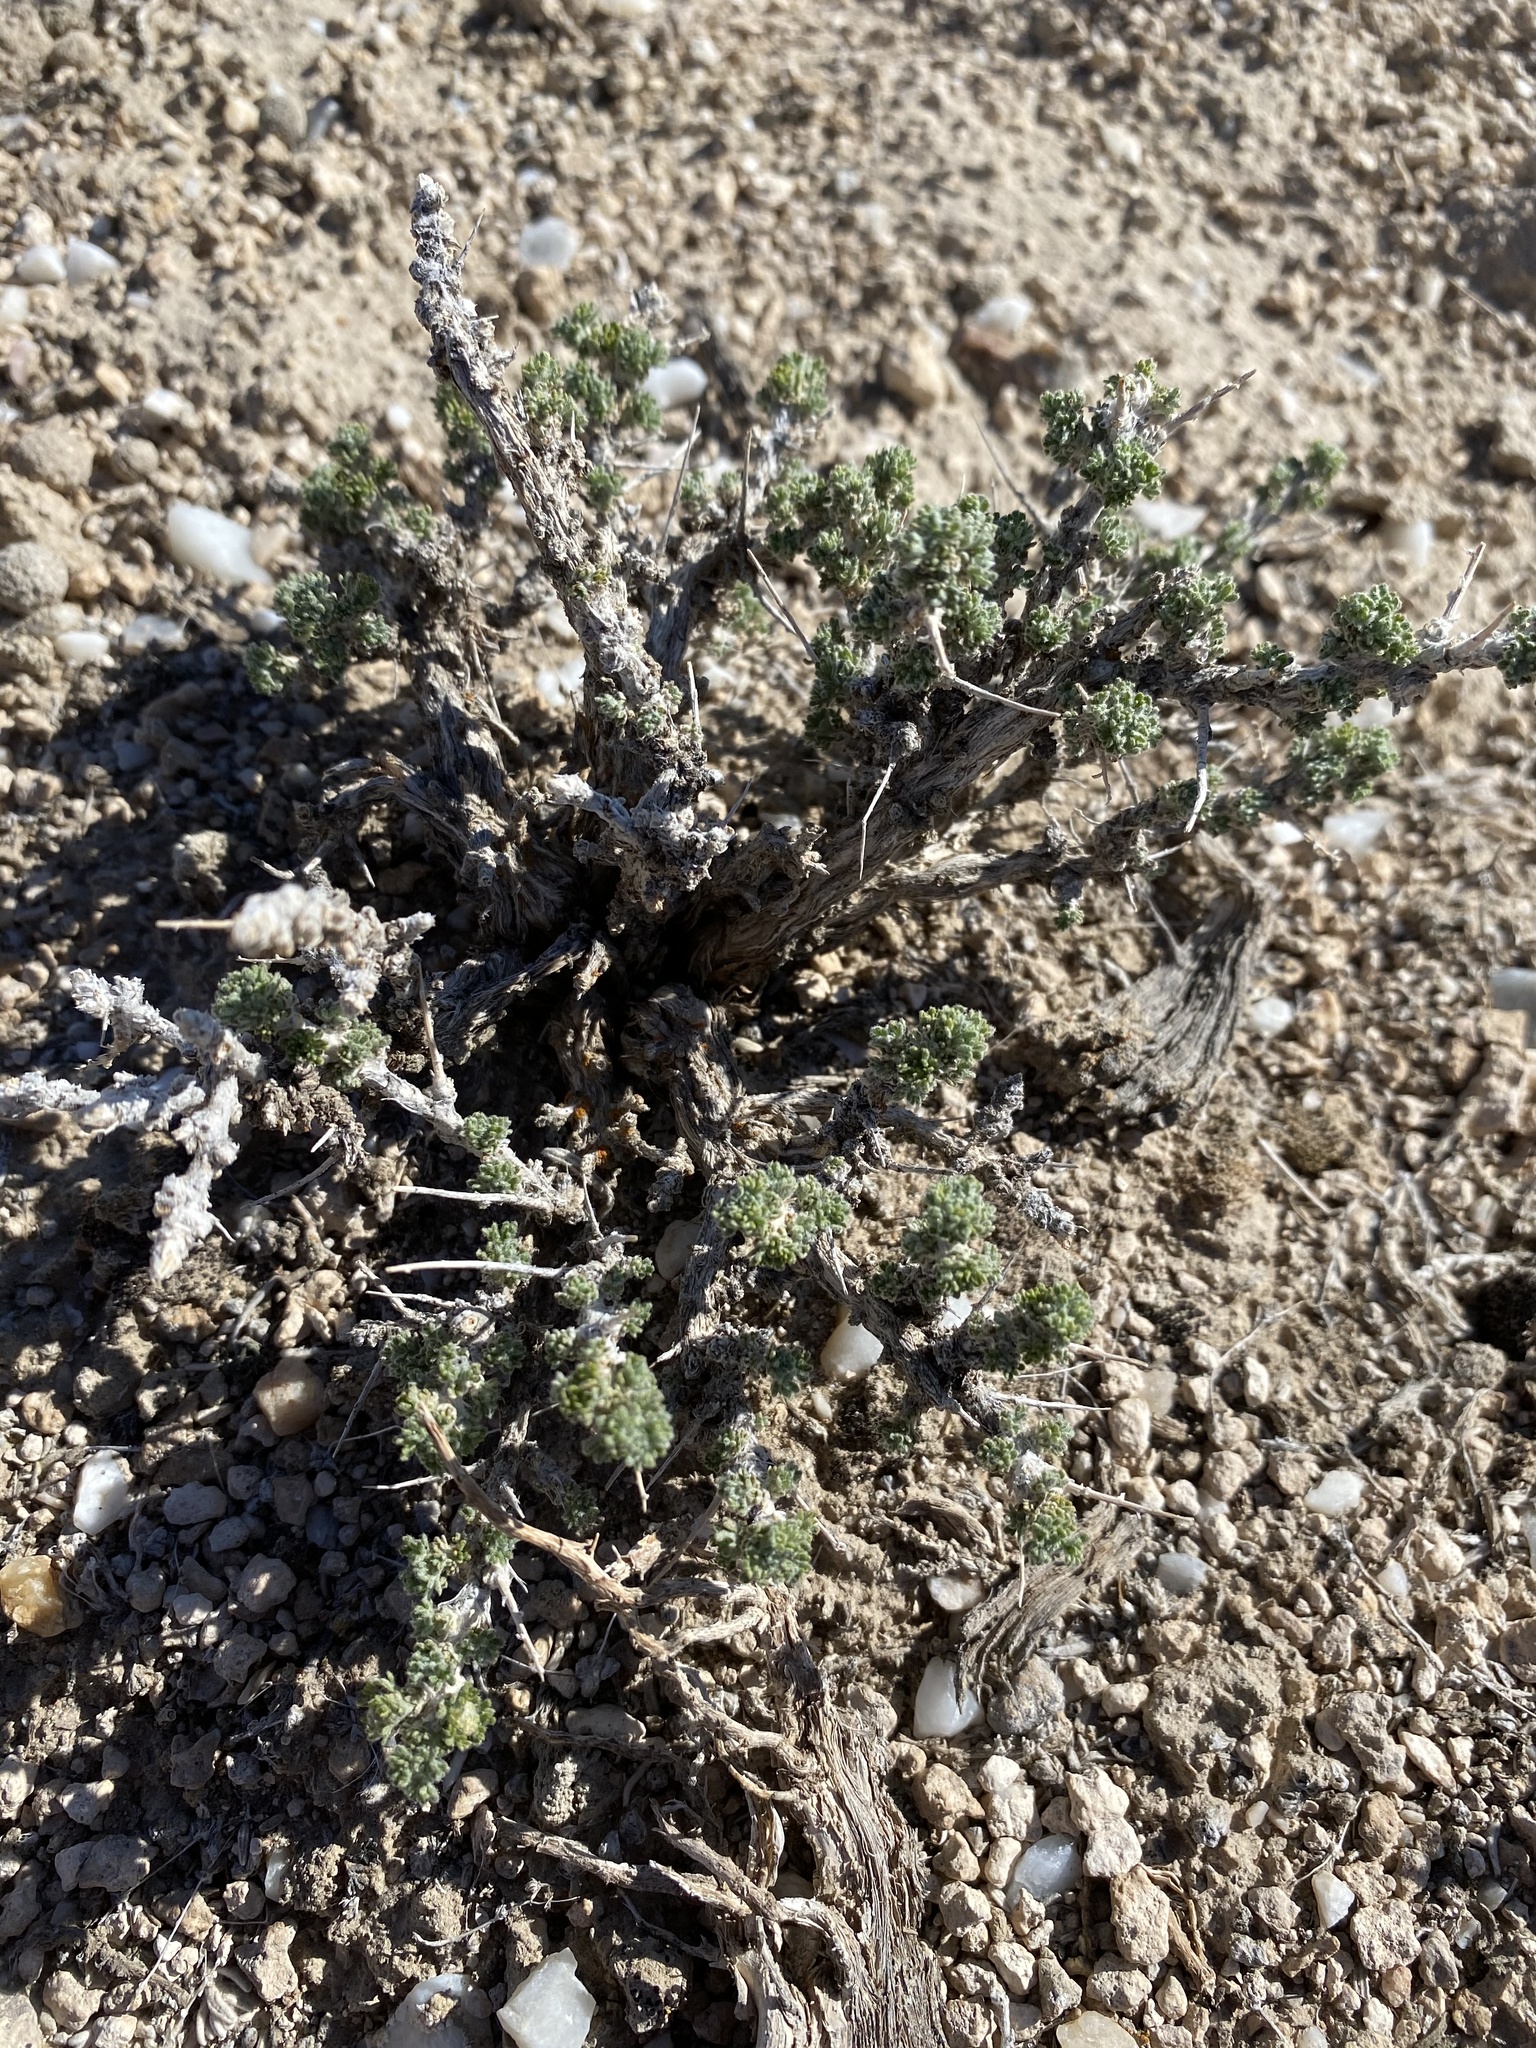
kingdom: Plantae
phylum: Tracheophyta
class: Magnoliopsida
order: Asterales
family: Asteraceae
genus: Artemisia
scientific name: Artemisia spinescens
